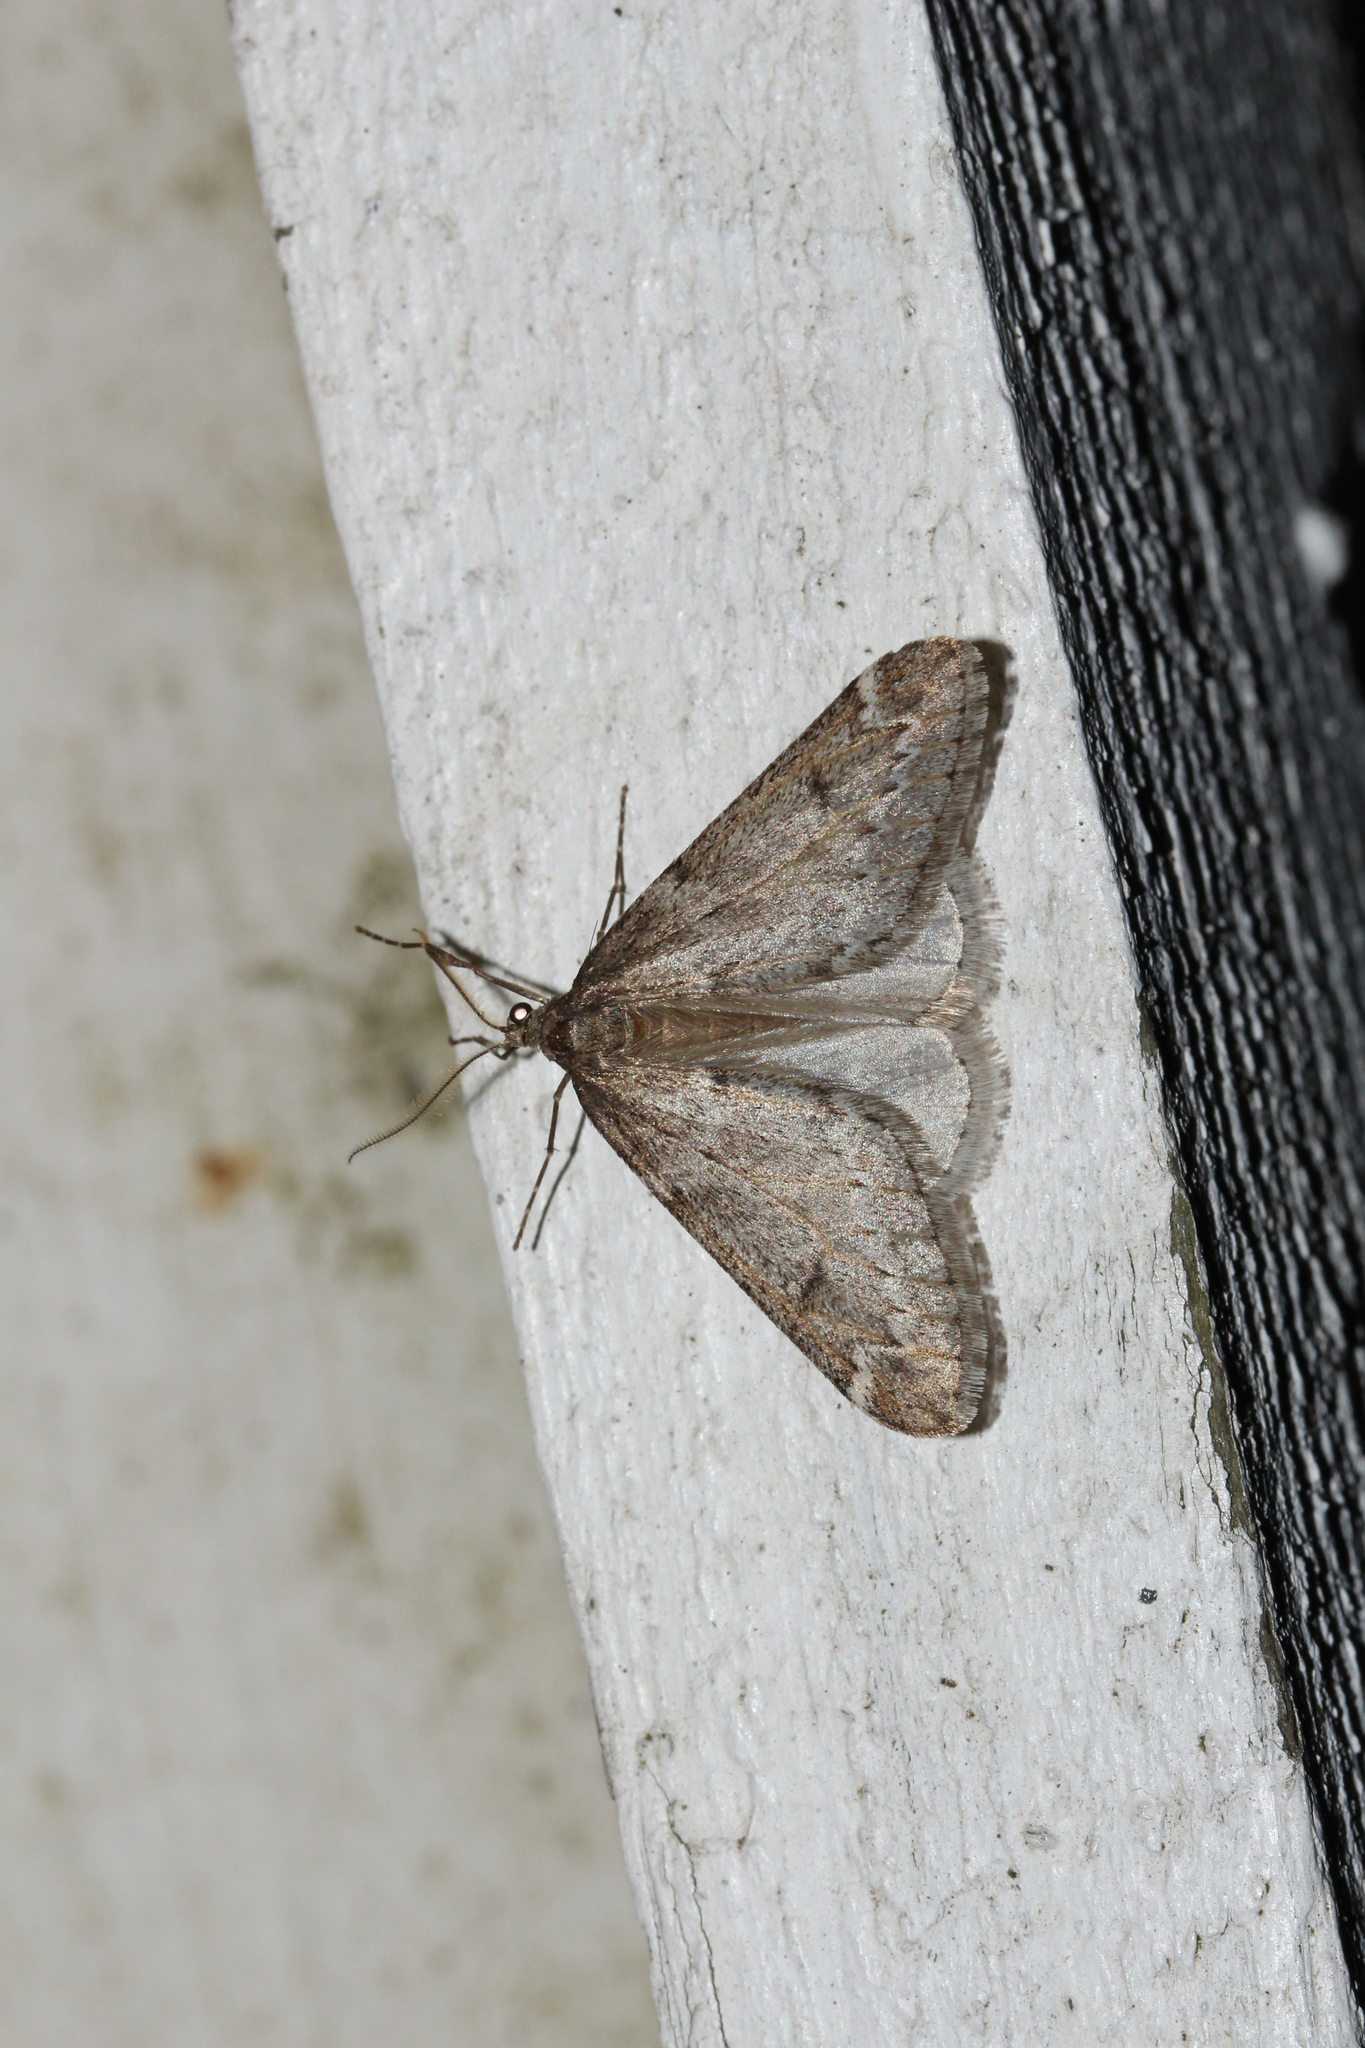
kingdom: Animalia
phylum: Arthropoda
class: Insecta
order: Lepidoptera
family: Geometridae
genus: Alsophila
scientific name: Alsophila aescularia
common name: March moth
